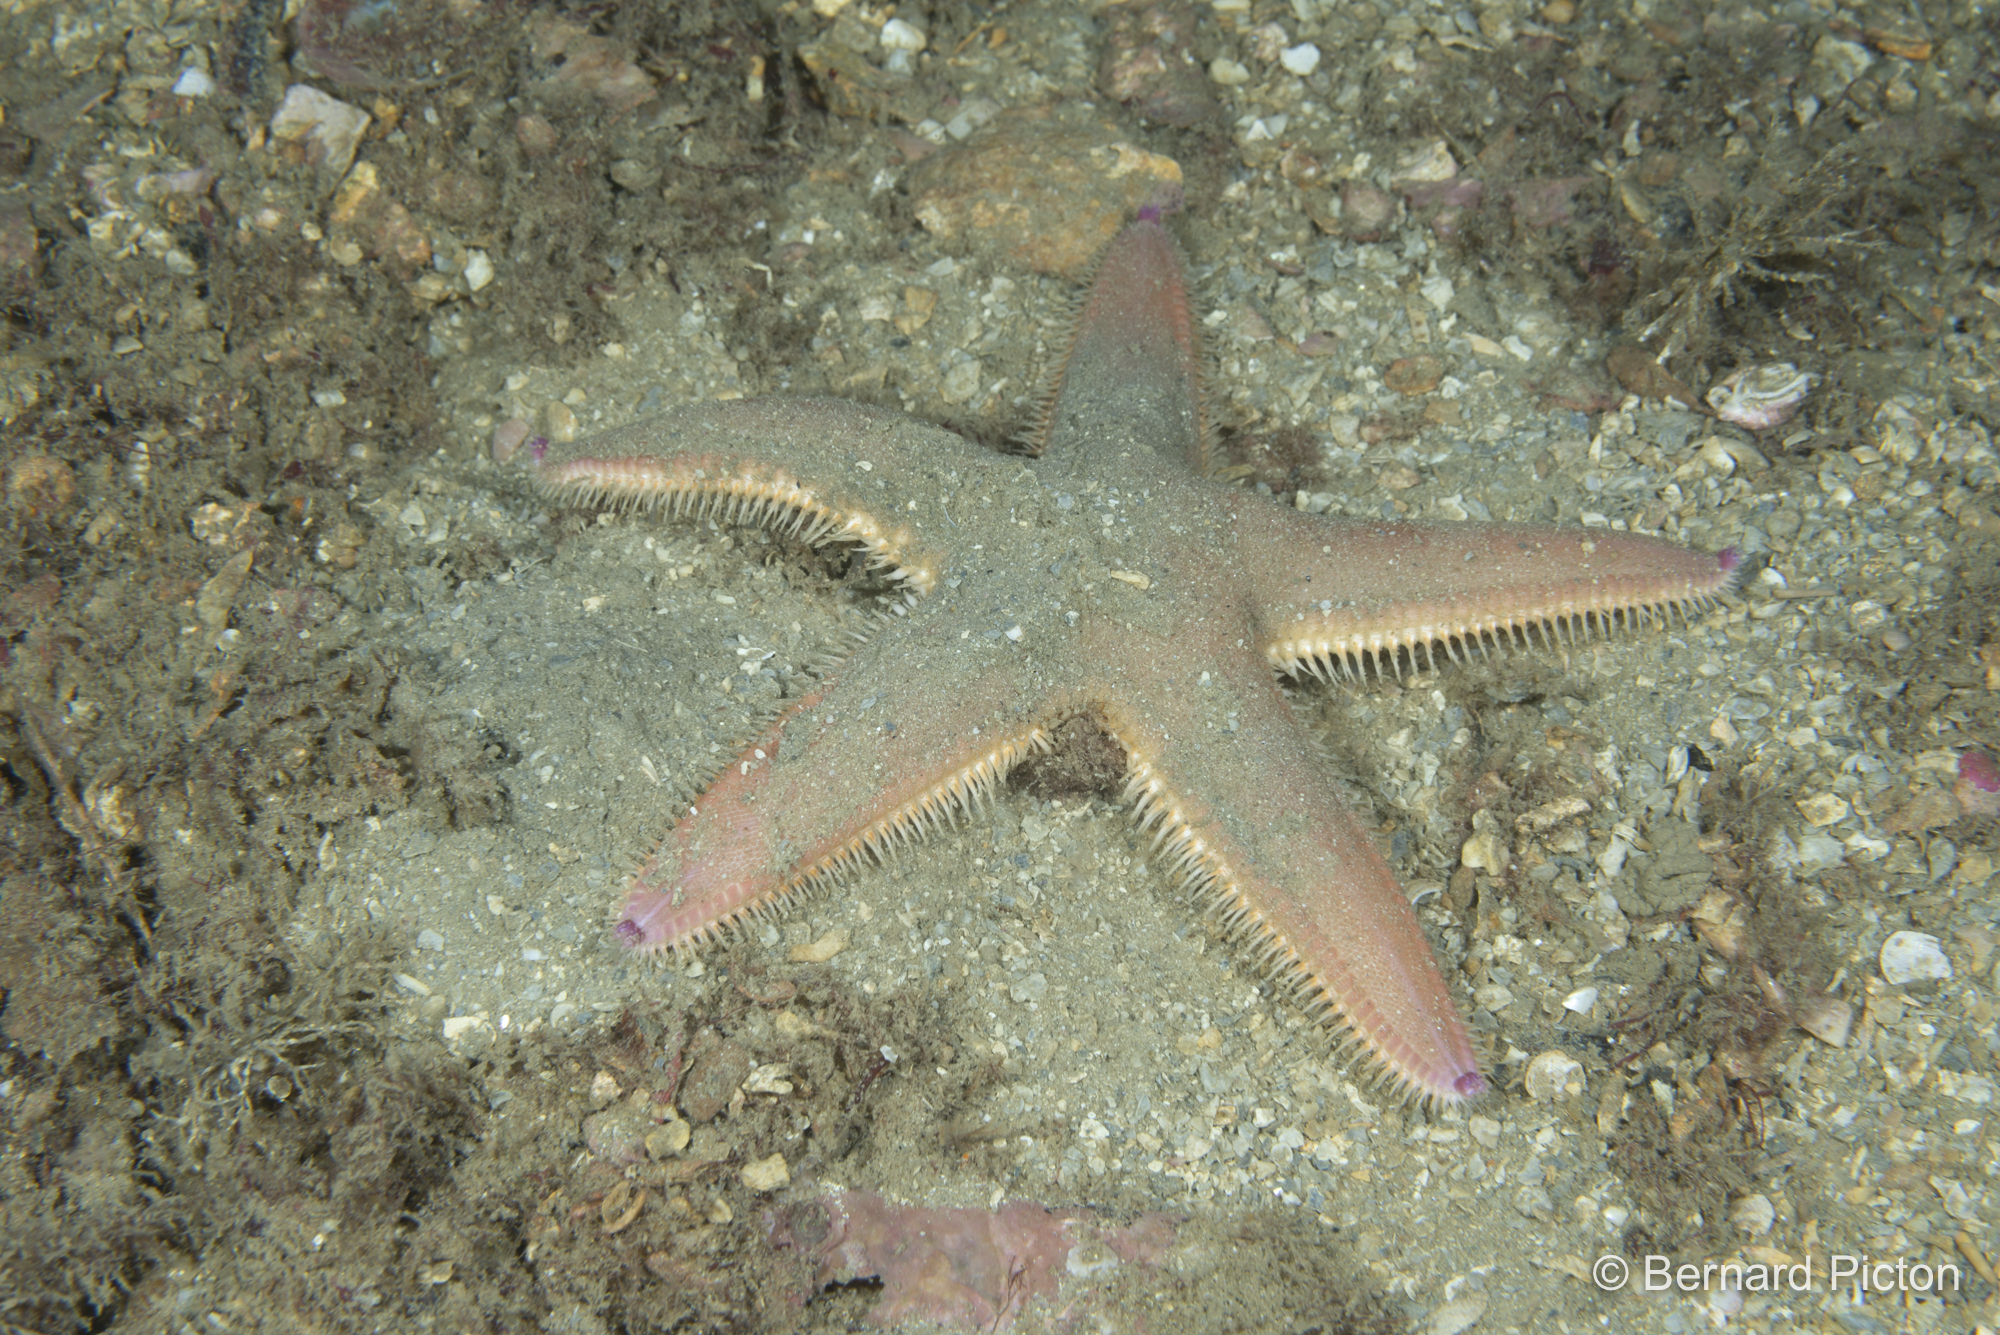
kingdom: Animalia
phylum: Echinodermata
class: Asteroidea
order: Paxillosida
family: Astropectinidae
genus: Astropecten
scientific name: Astropecten irregularis
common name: Sand star
